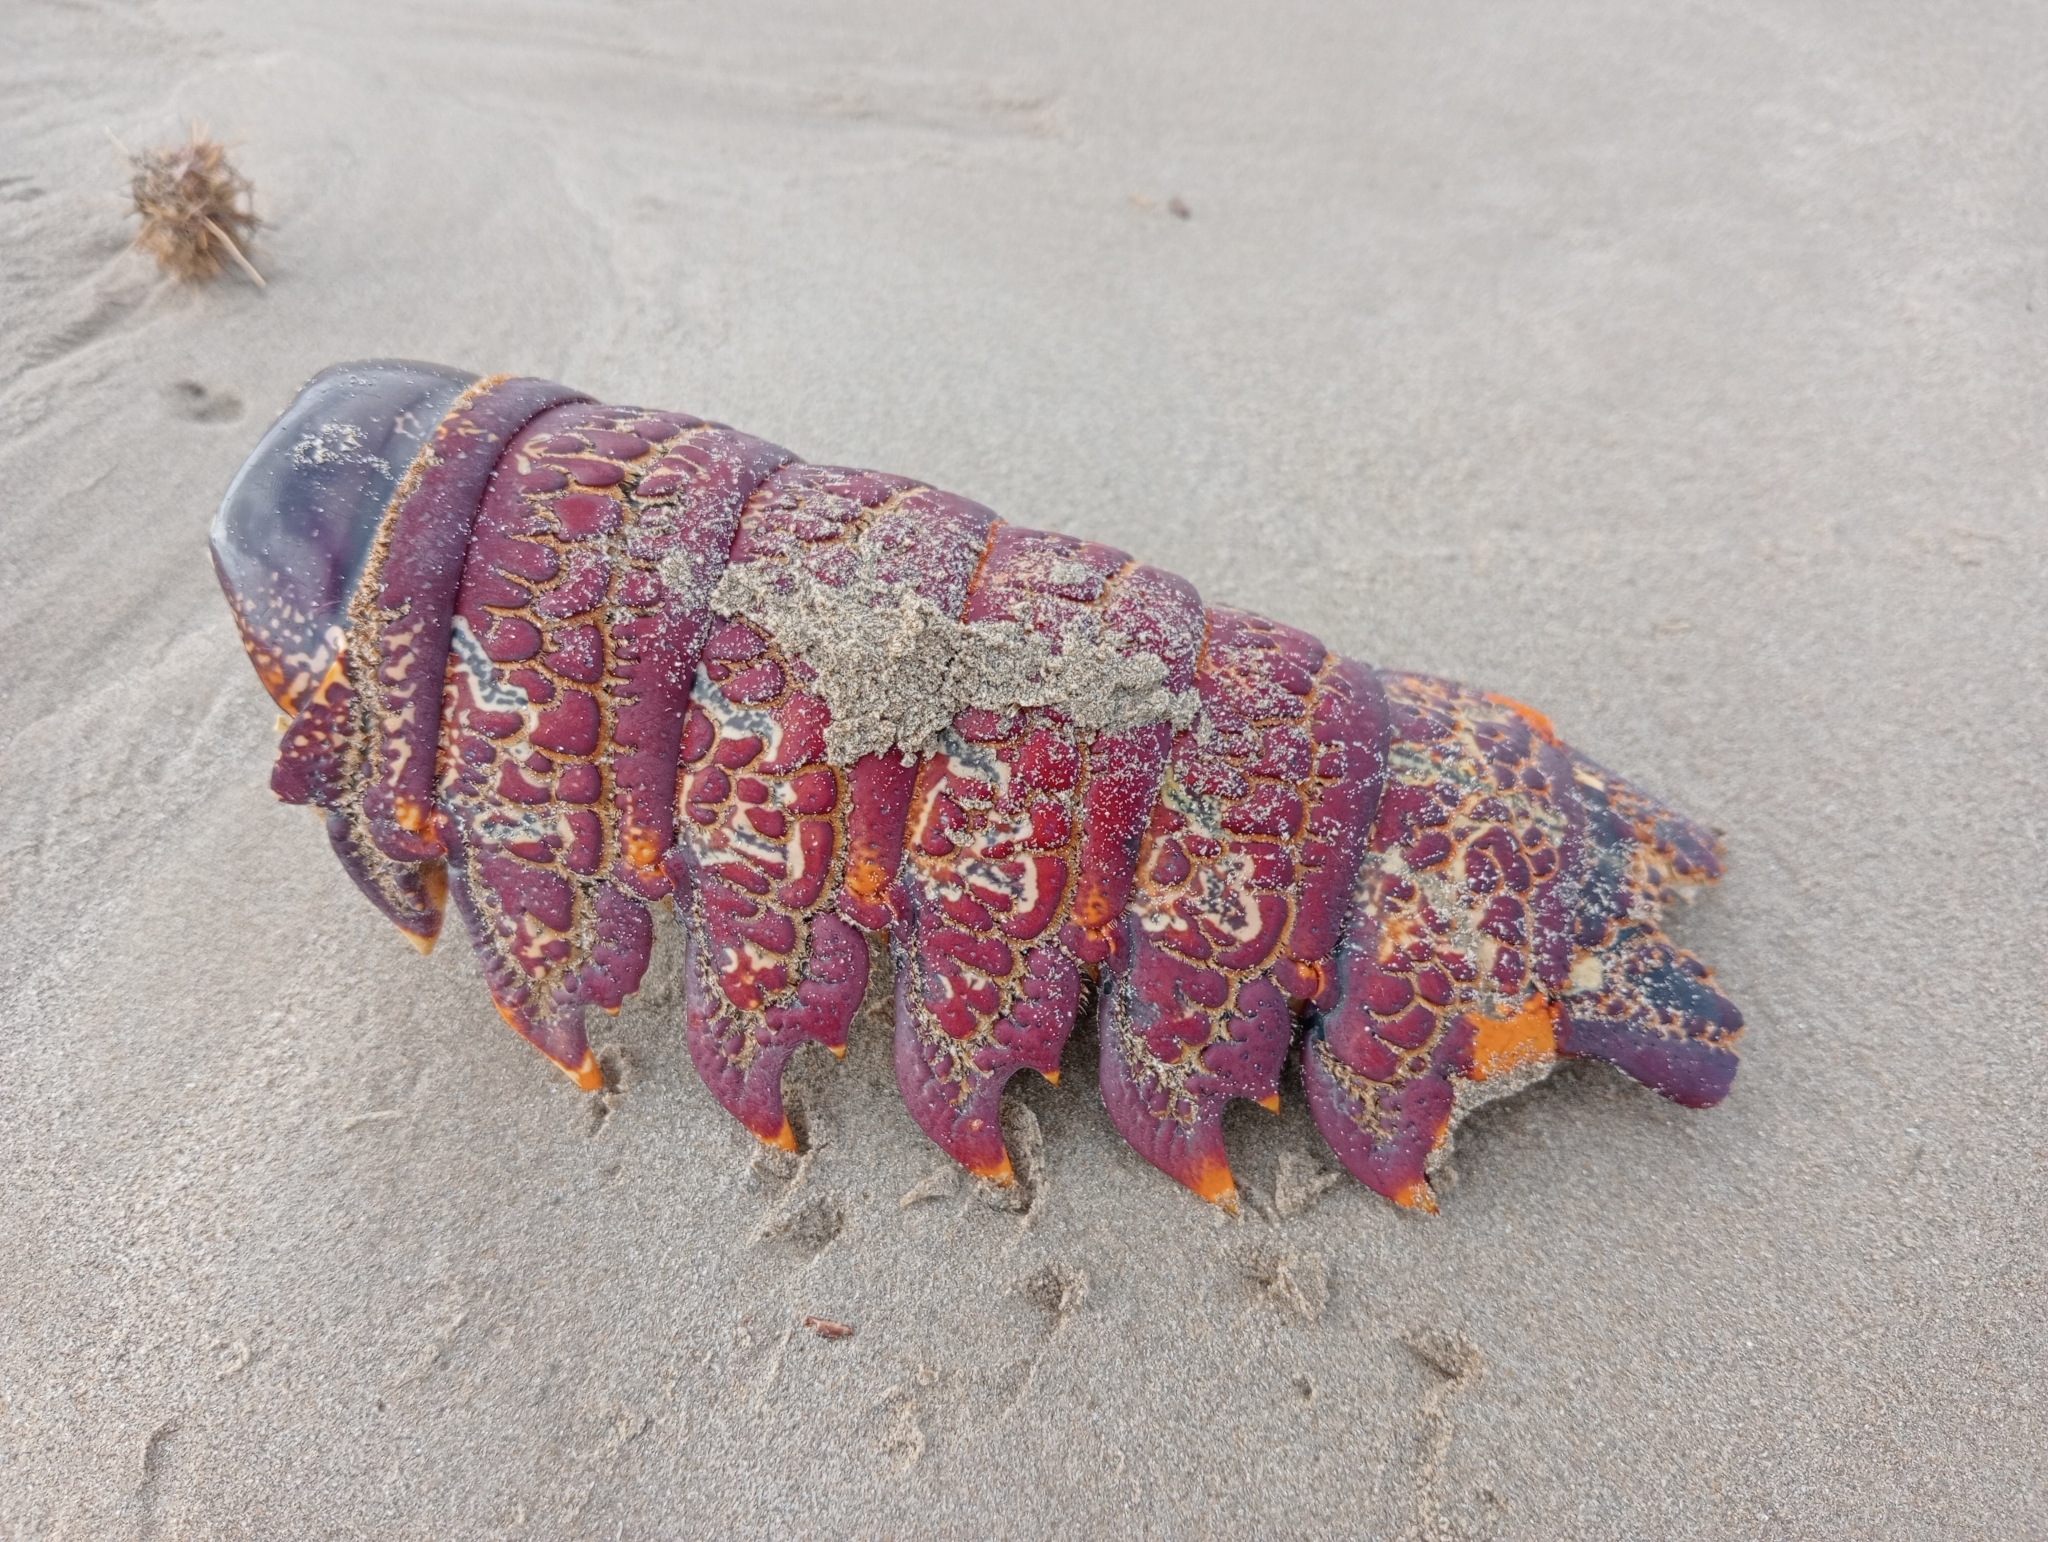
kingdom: Animalia
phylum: Arthropoda
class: Malacostraca
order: Decapoda
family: Palinuridae
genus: Jasus
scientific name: Jasus edwardsii
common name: Red rock lobster
